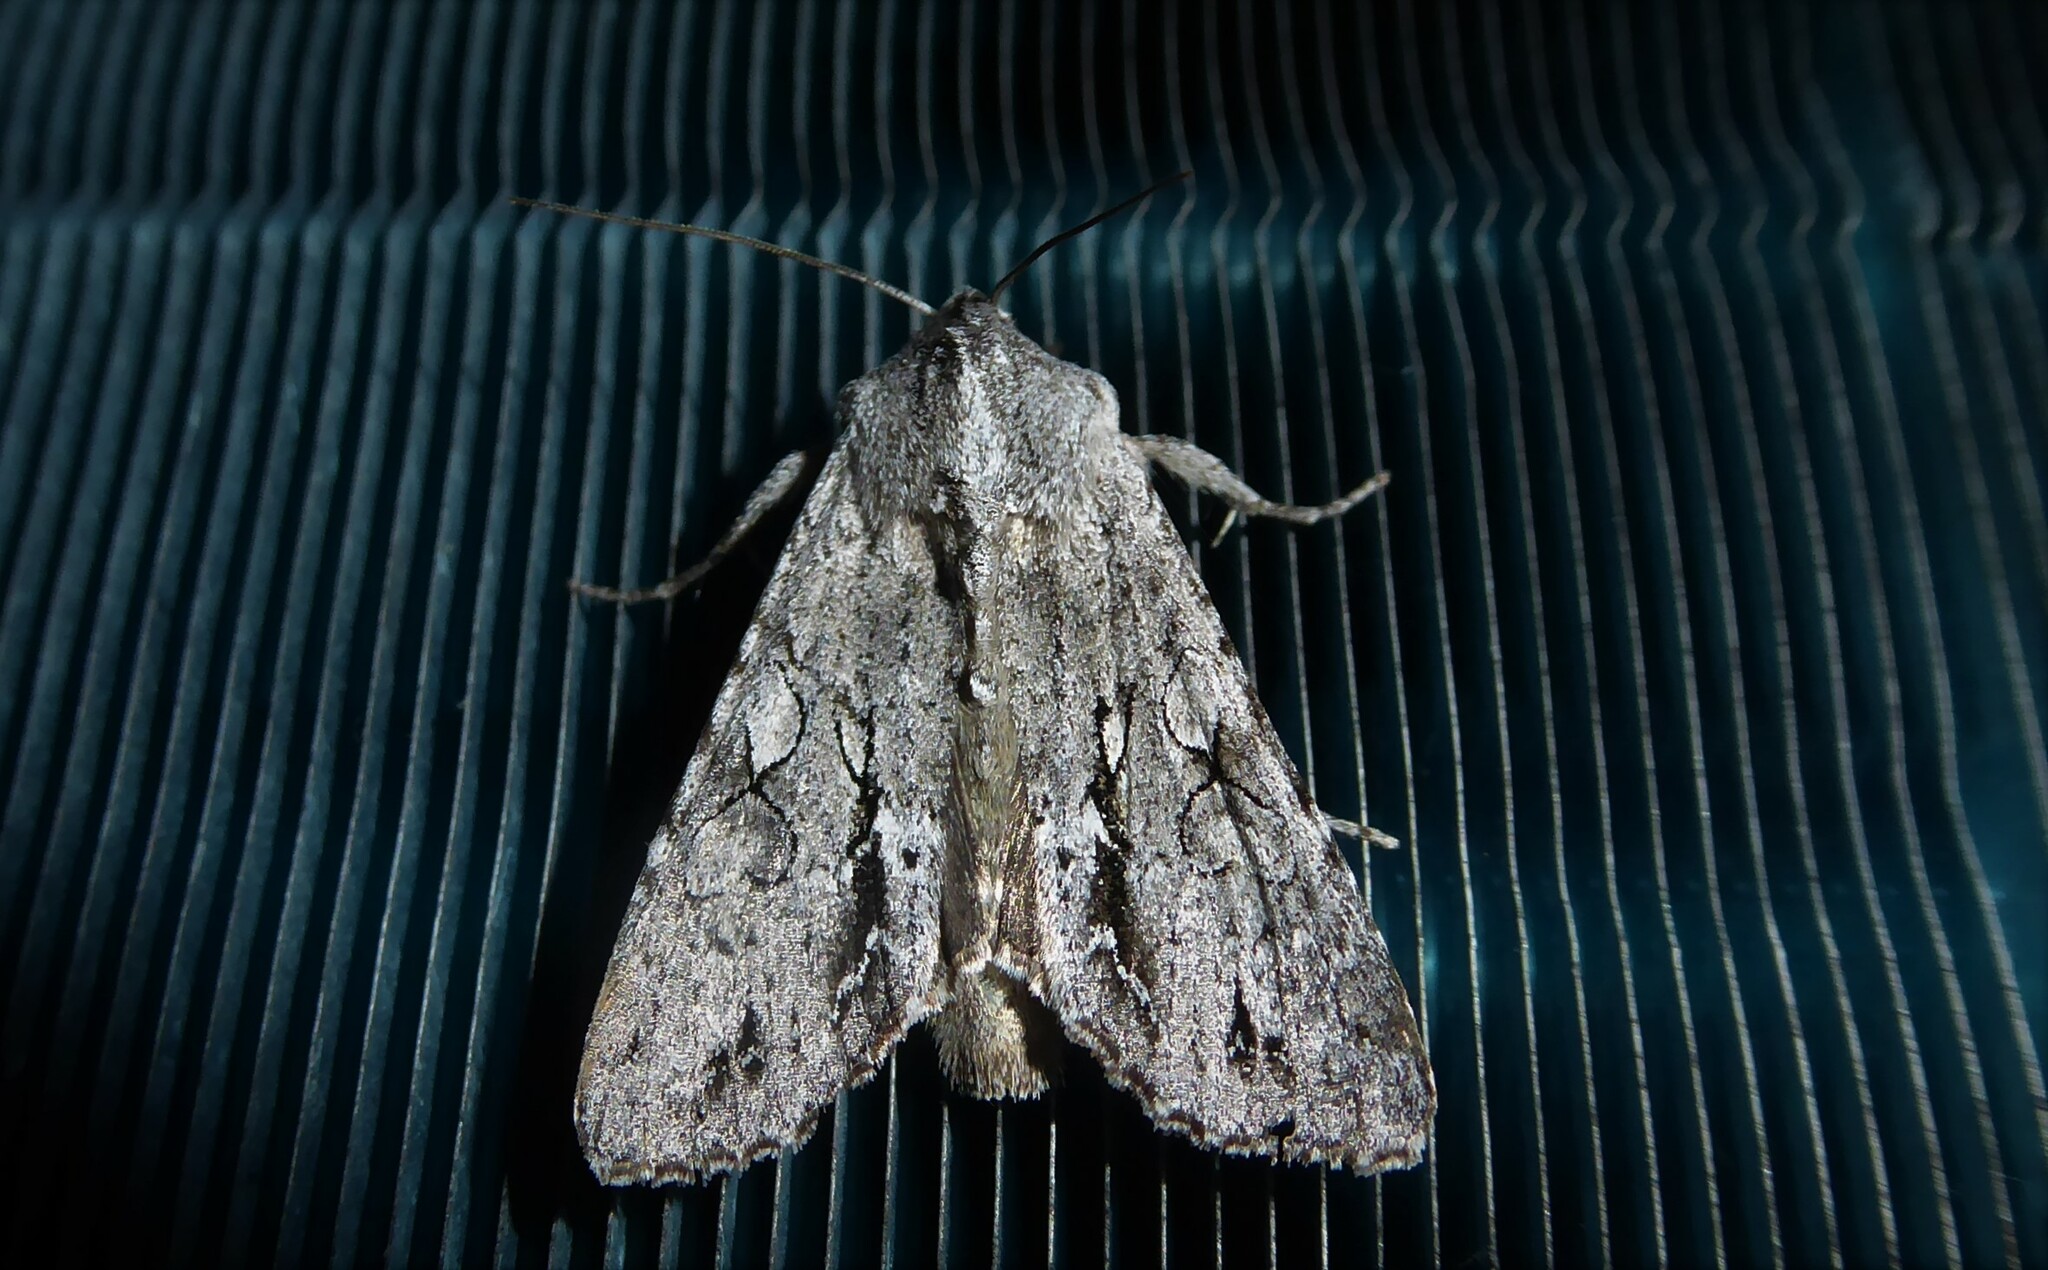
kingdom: Animalia
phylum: Arthropoda
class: Insecta
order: Lepidoptera
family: Noctuidae
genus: Ichneutica
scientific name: Ichneutica
